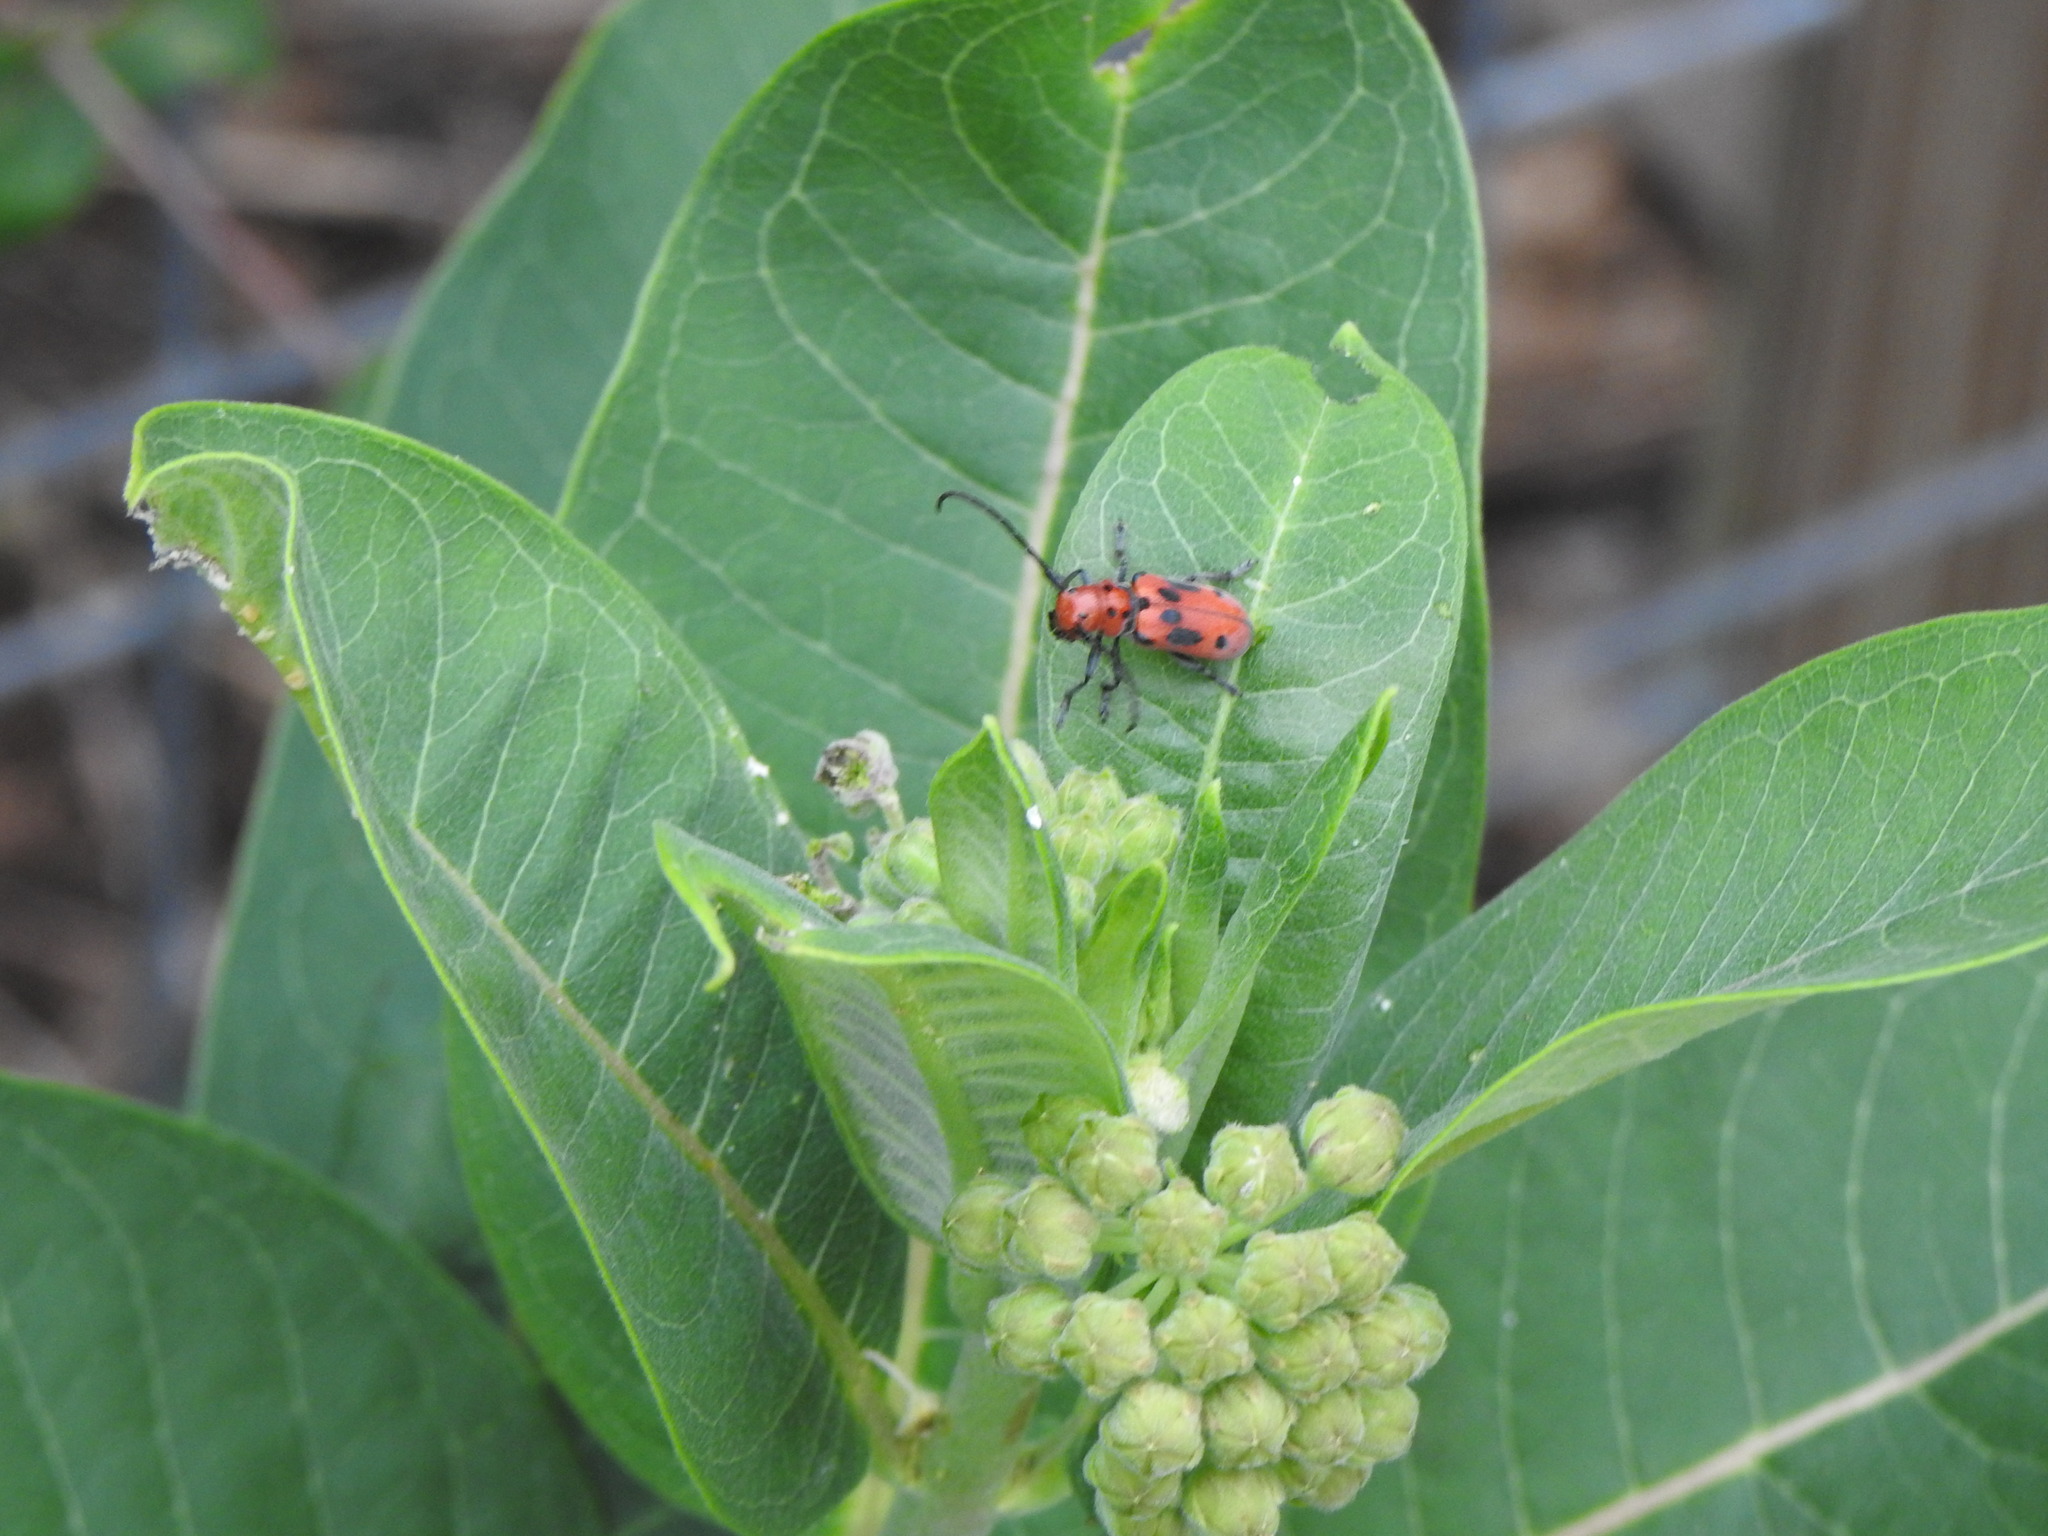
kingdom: Animalia
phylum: Arthropoda
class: Insecta
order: Coleoptera
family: Cerambycidae
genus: Tetraopes
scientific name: Tetraopes tetrophthalmus
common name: Red milkweed beetle
